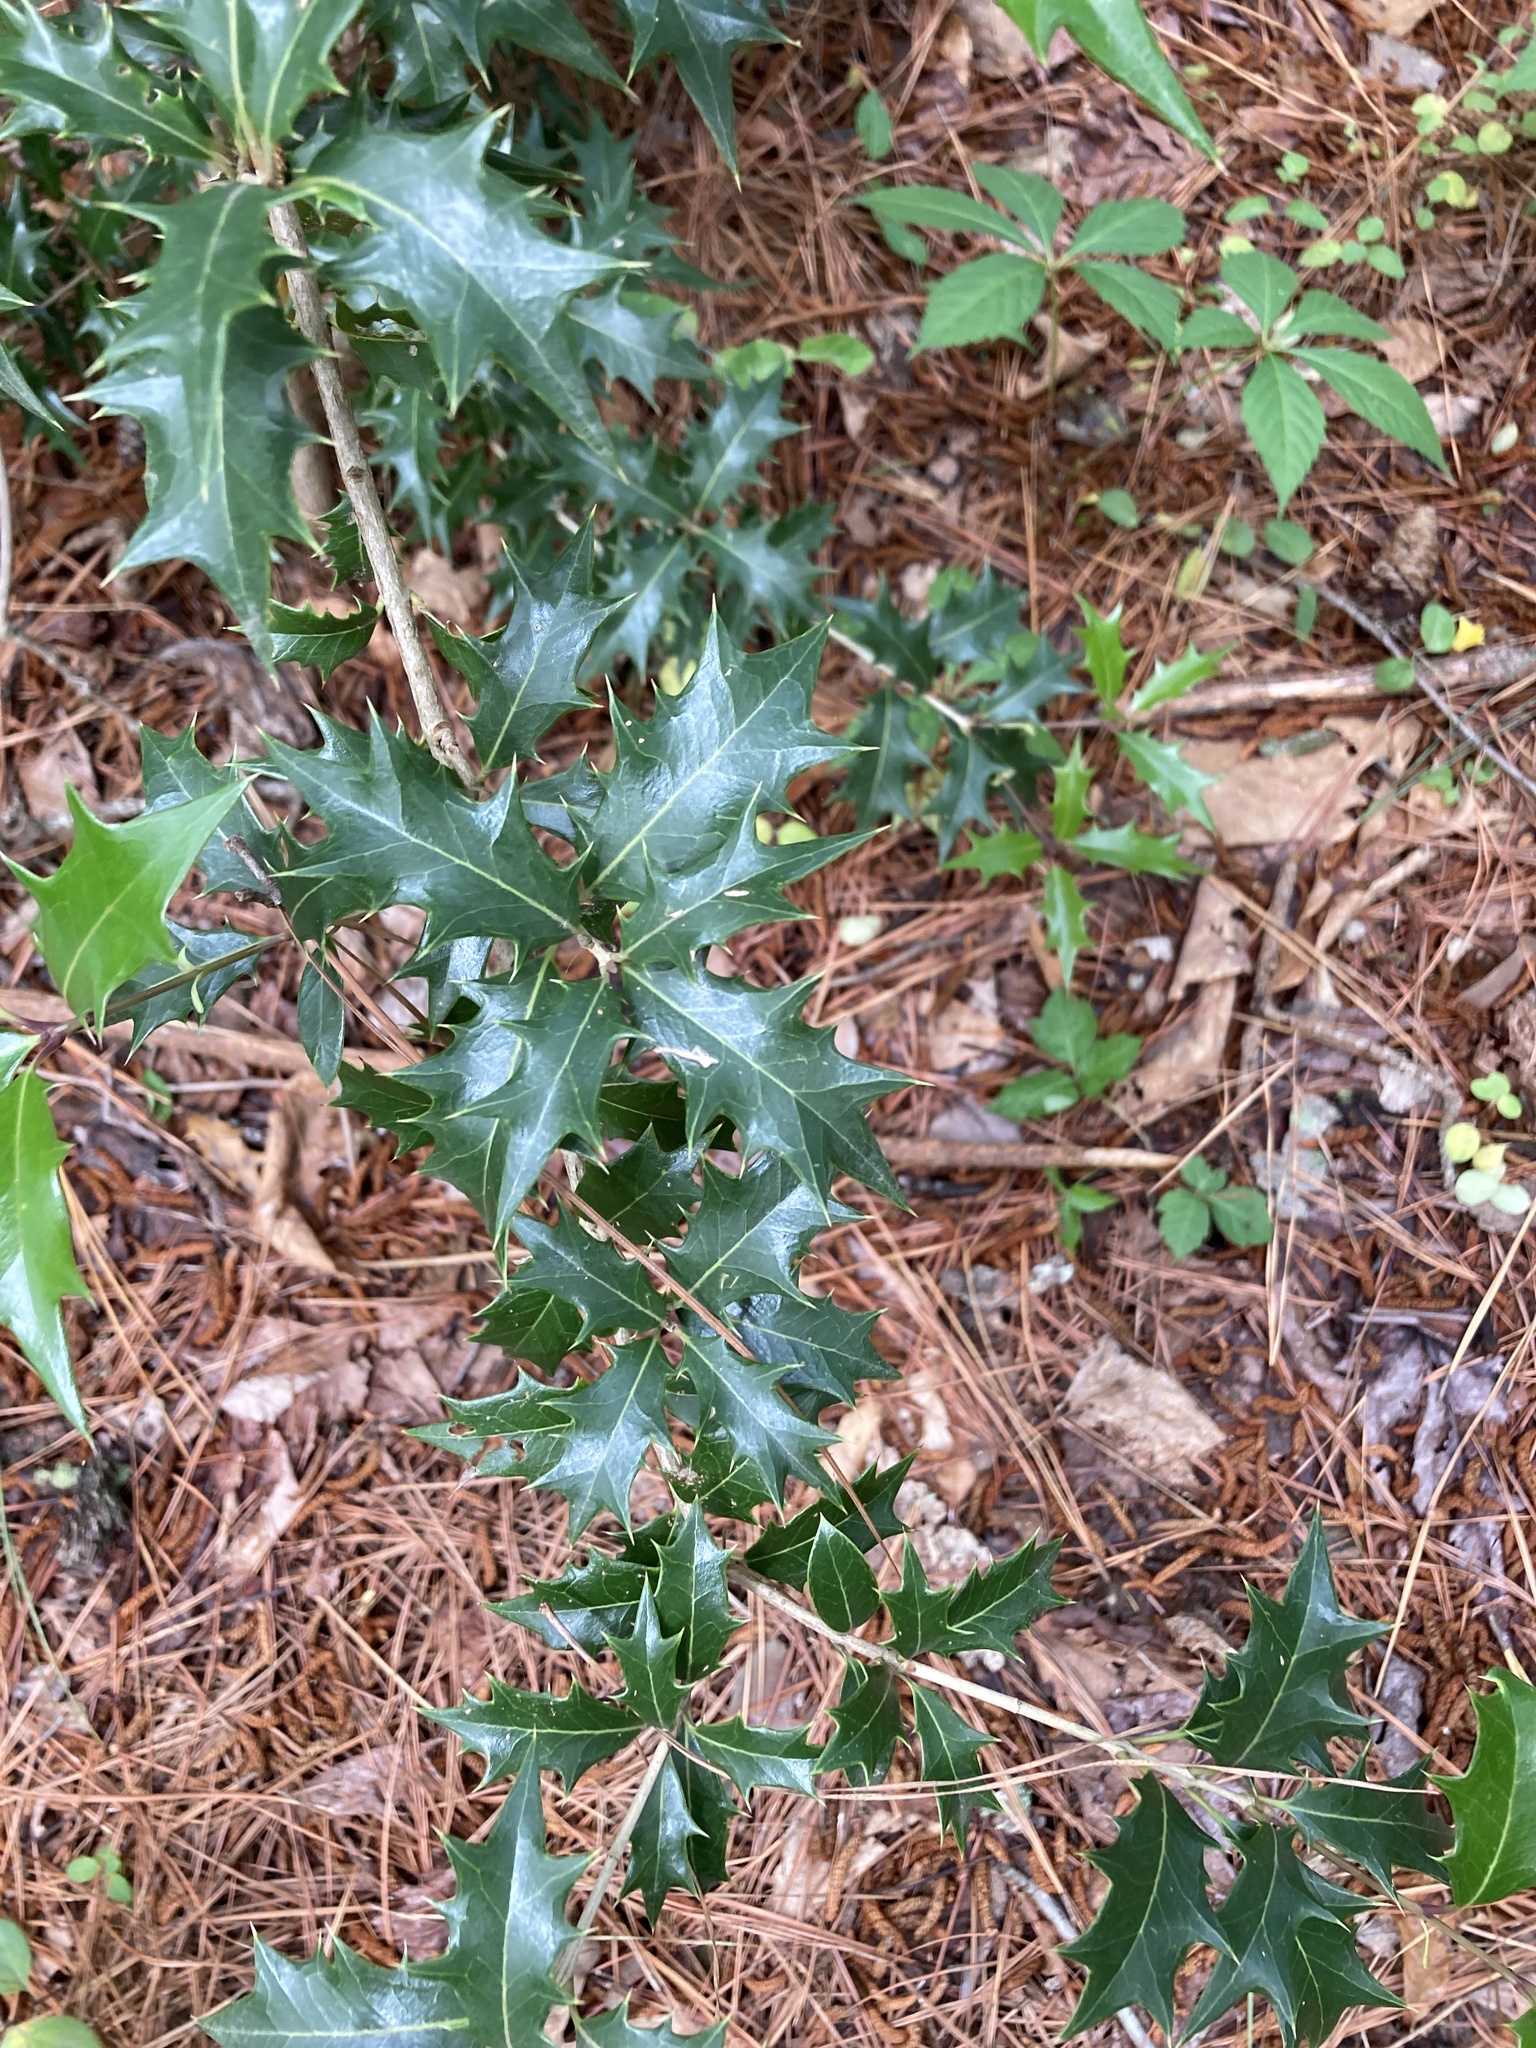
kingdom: Plantae
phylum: Tracheophyta
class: Magnoliopsida
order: Lamiales
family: Oleaceae
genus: Osmanthus
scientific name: Osmanthus heterophyllus
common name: Holly osmanthus
